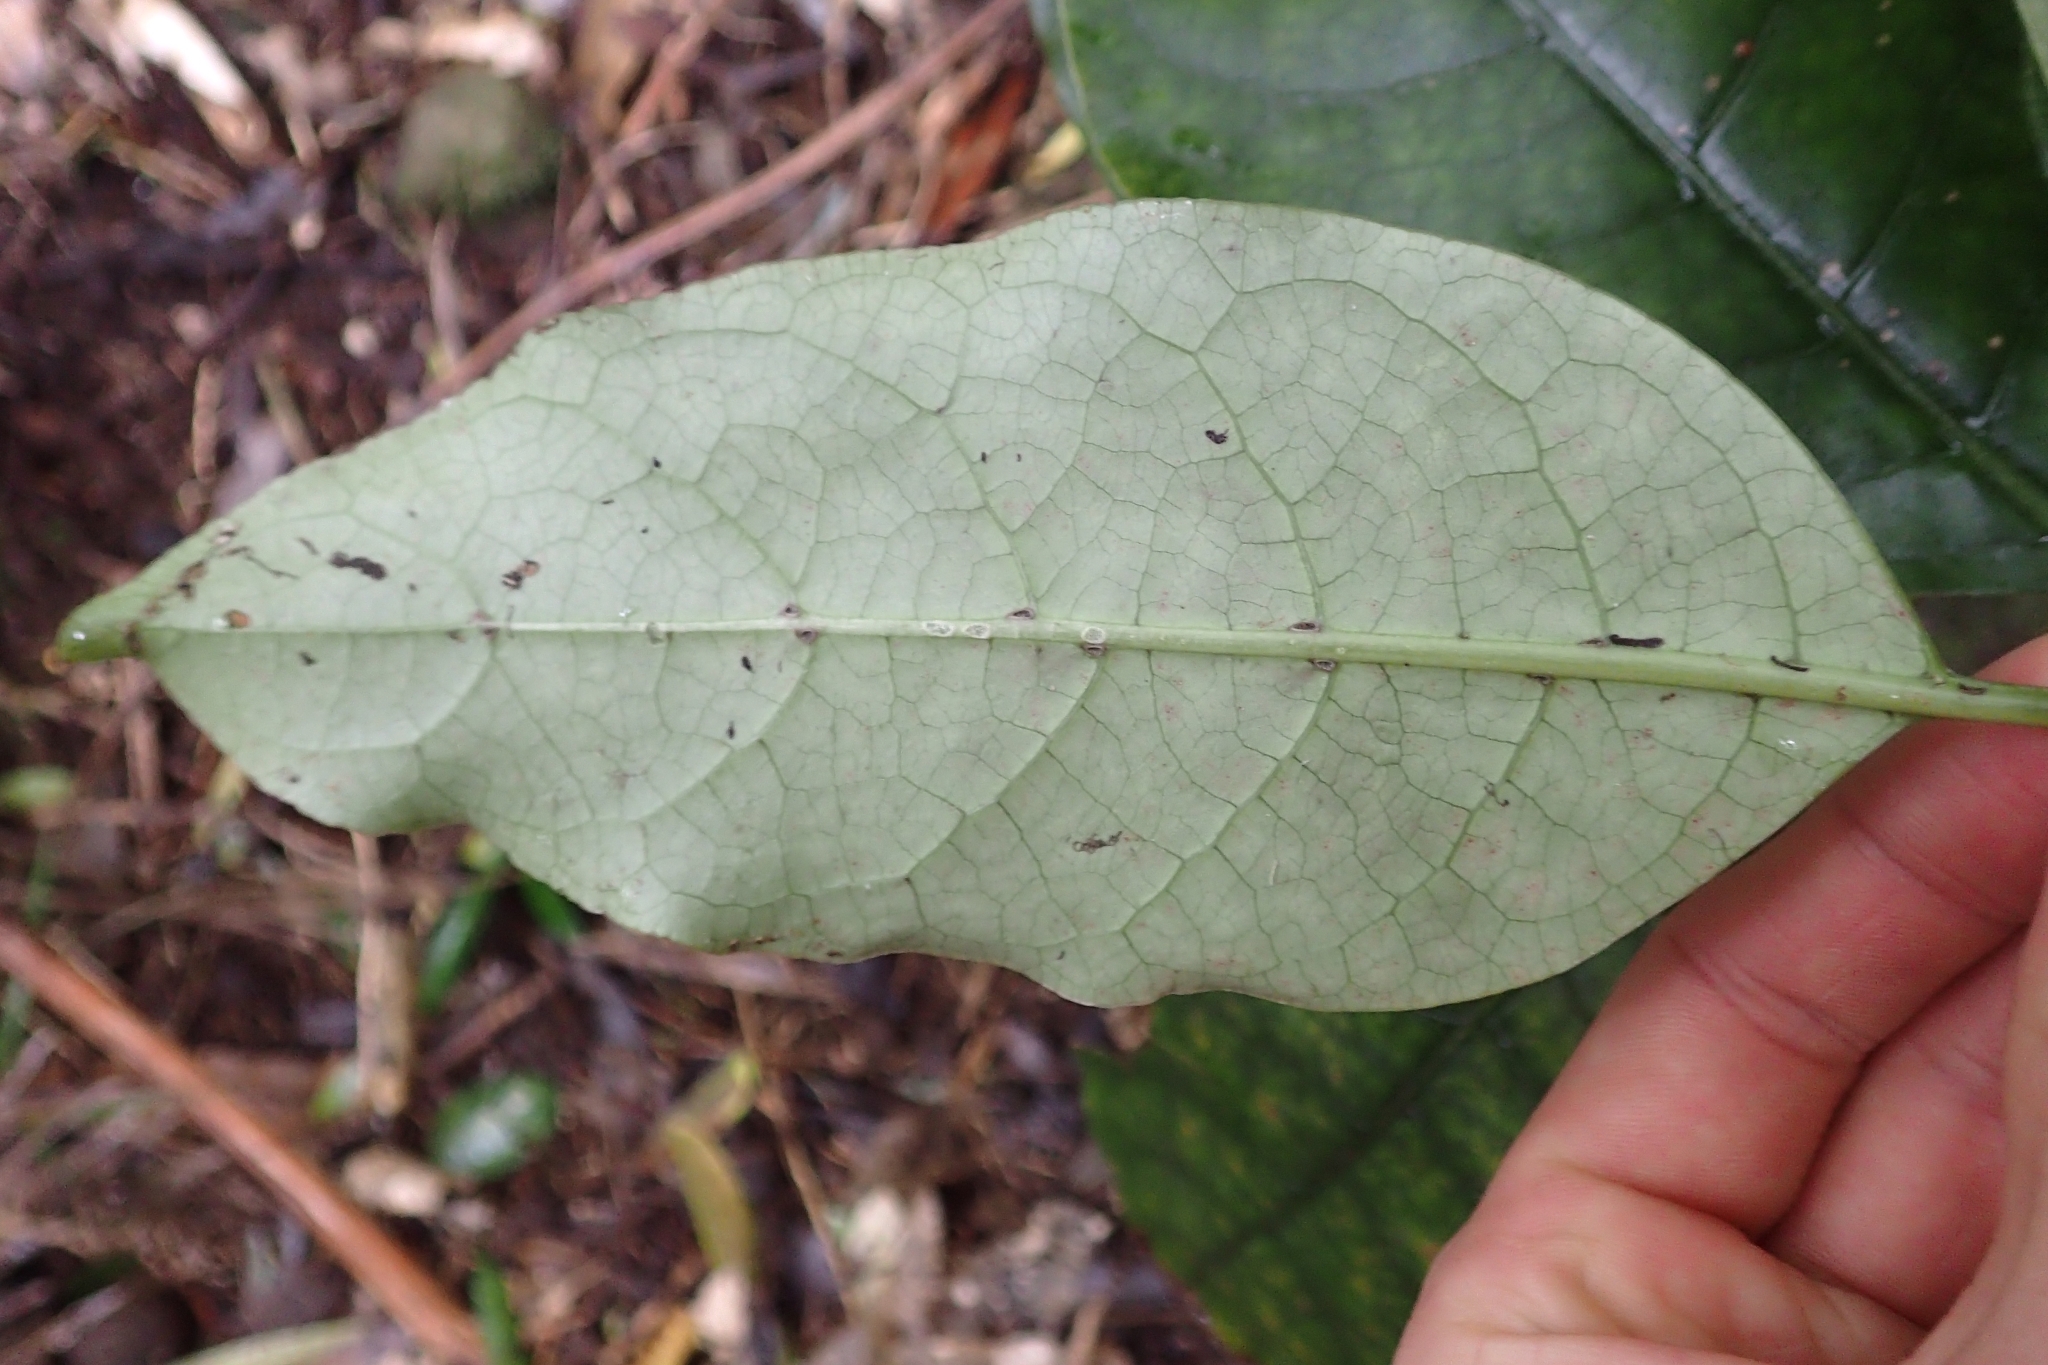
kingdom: Plantae
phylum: Tracheophyta
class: Magnoliopsida
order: Gentianales
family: Rubiaceae
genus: Coprosma
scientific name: Coprosma autumnalis
